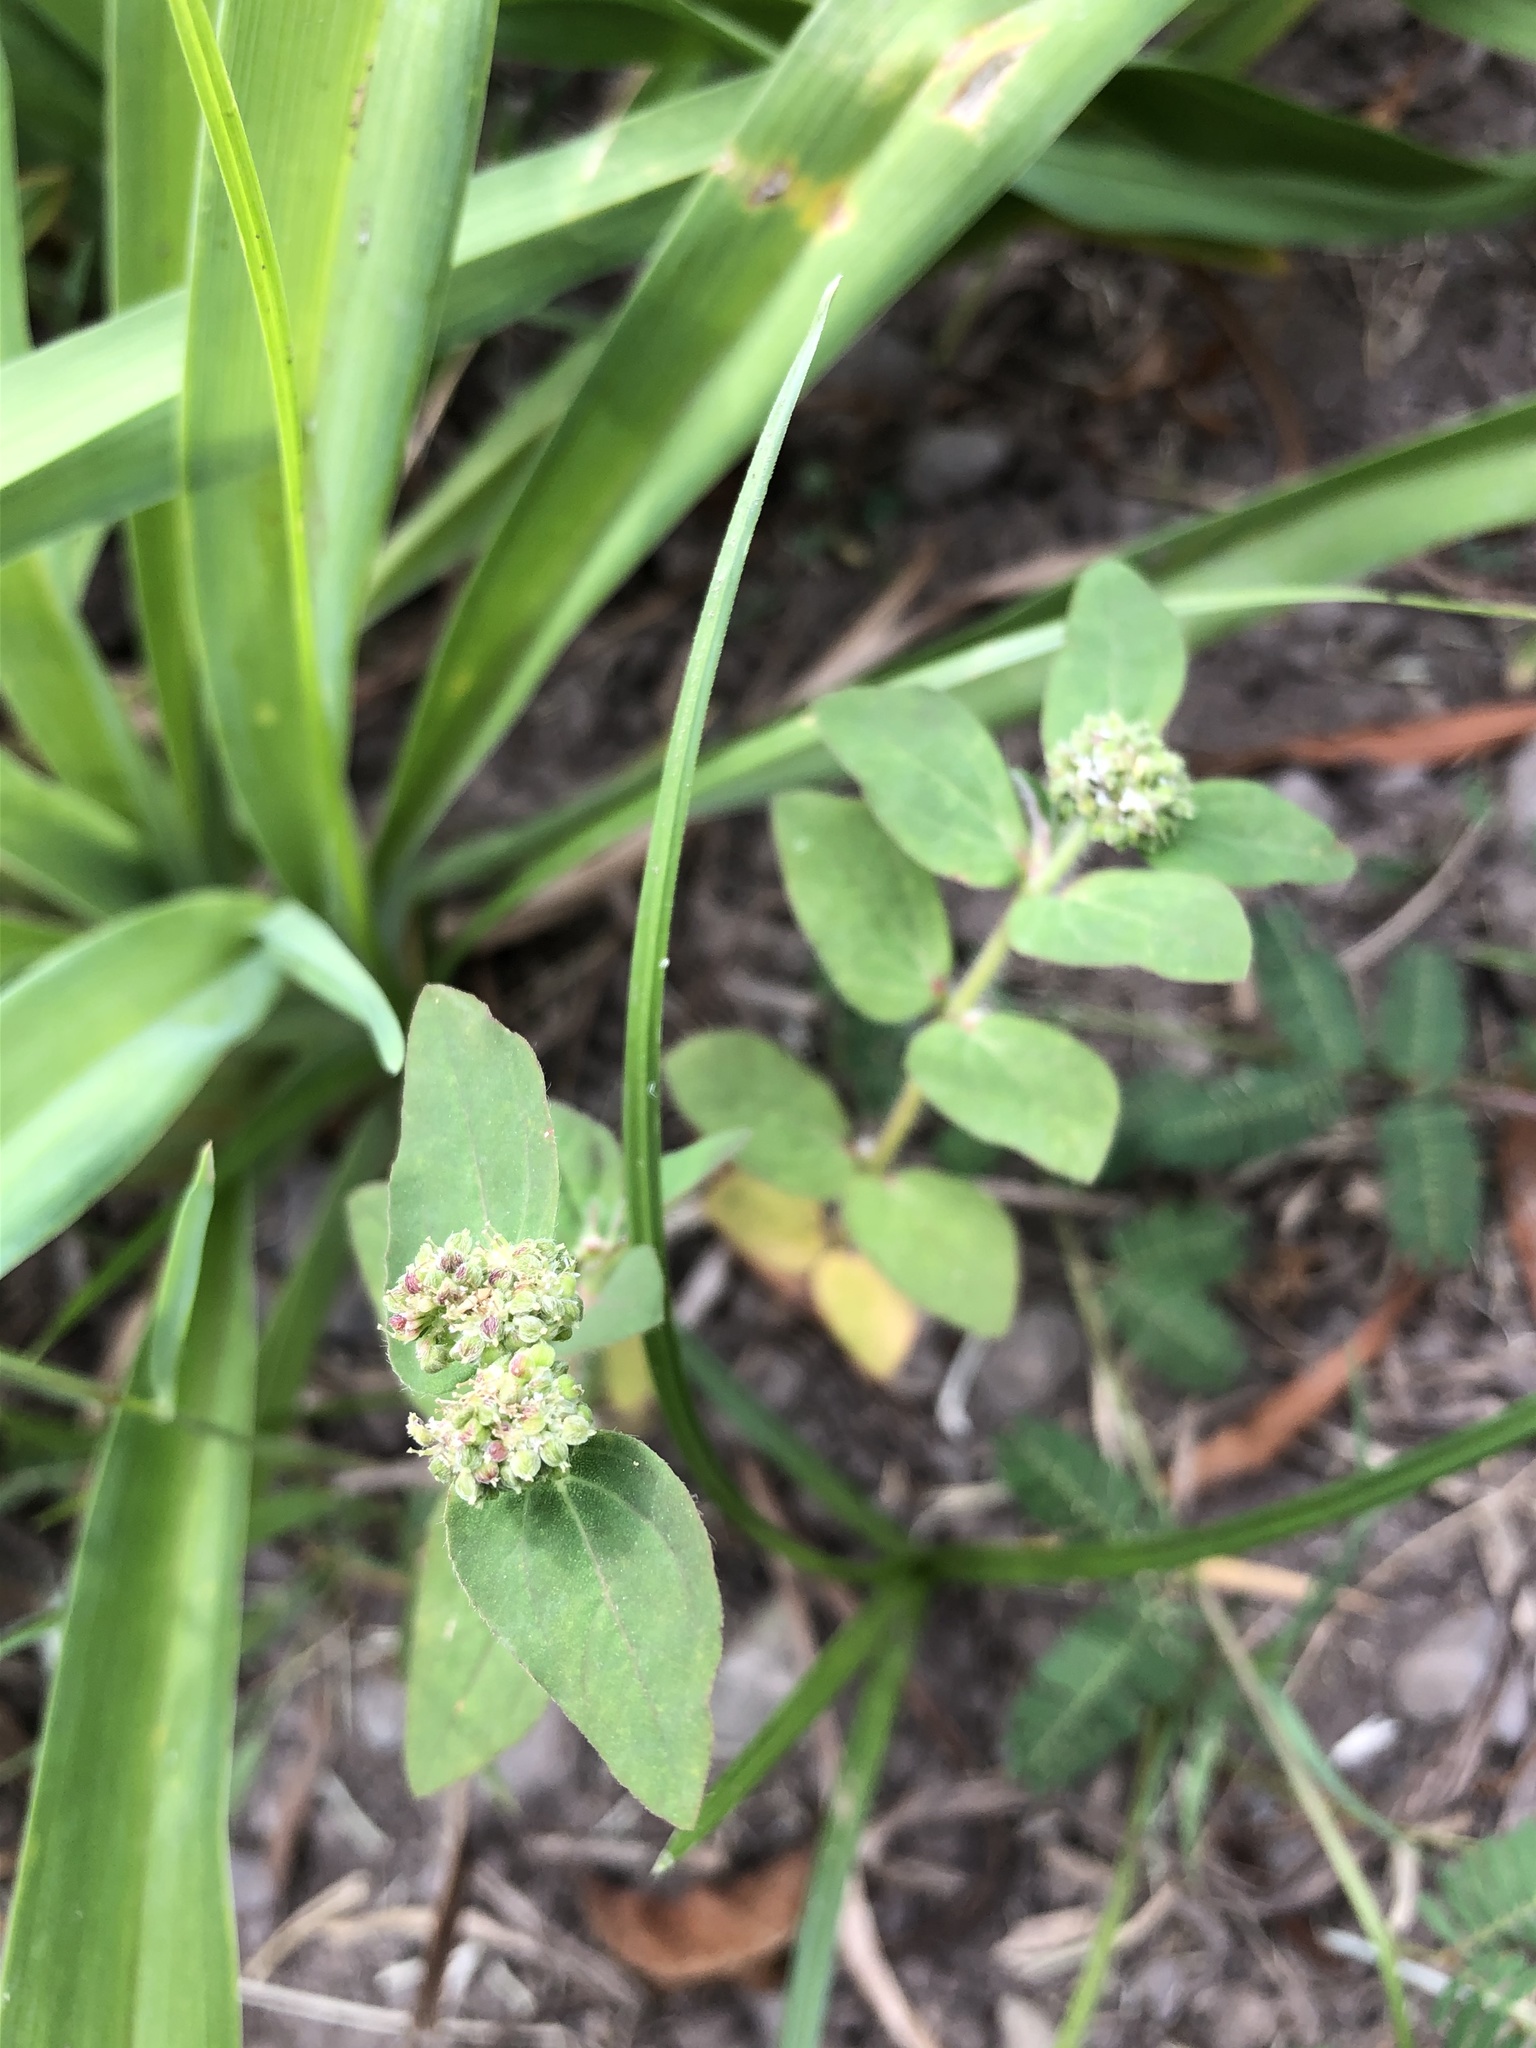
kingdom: Plantae
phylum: Tracheophyta
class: Magnoliopsida
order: Malpighiales
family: Euphorbiaceae
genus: Euphorbia
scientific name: Euphorbia ophthalmica
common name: Florida hammock sandmat
